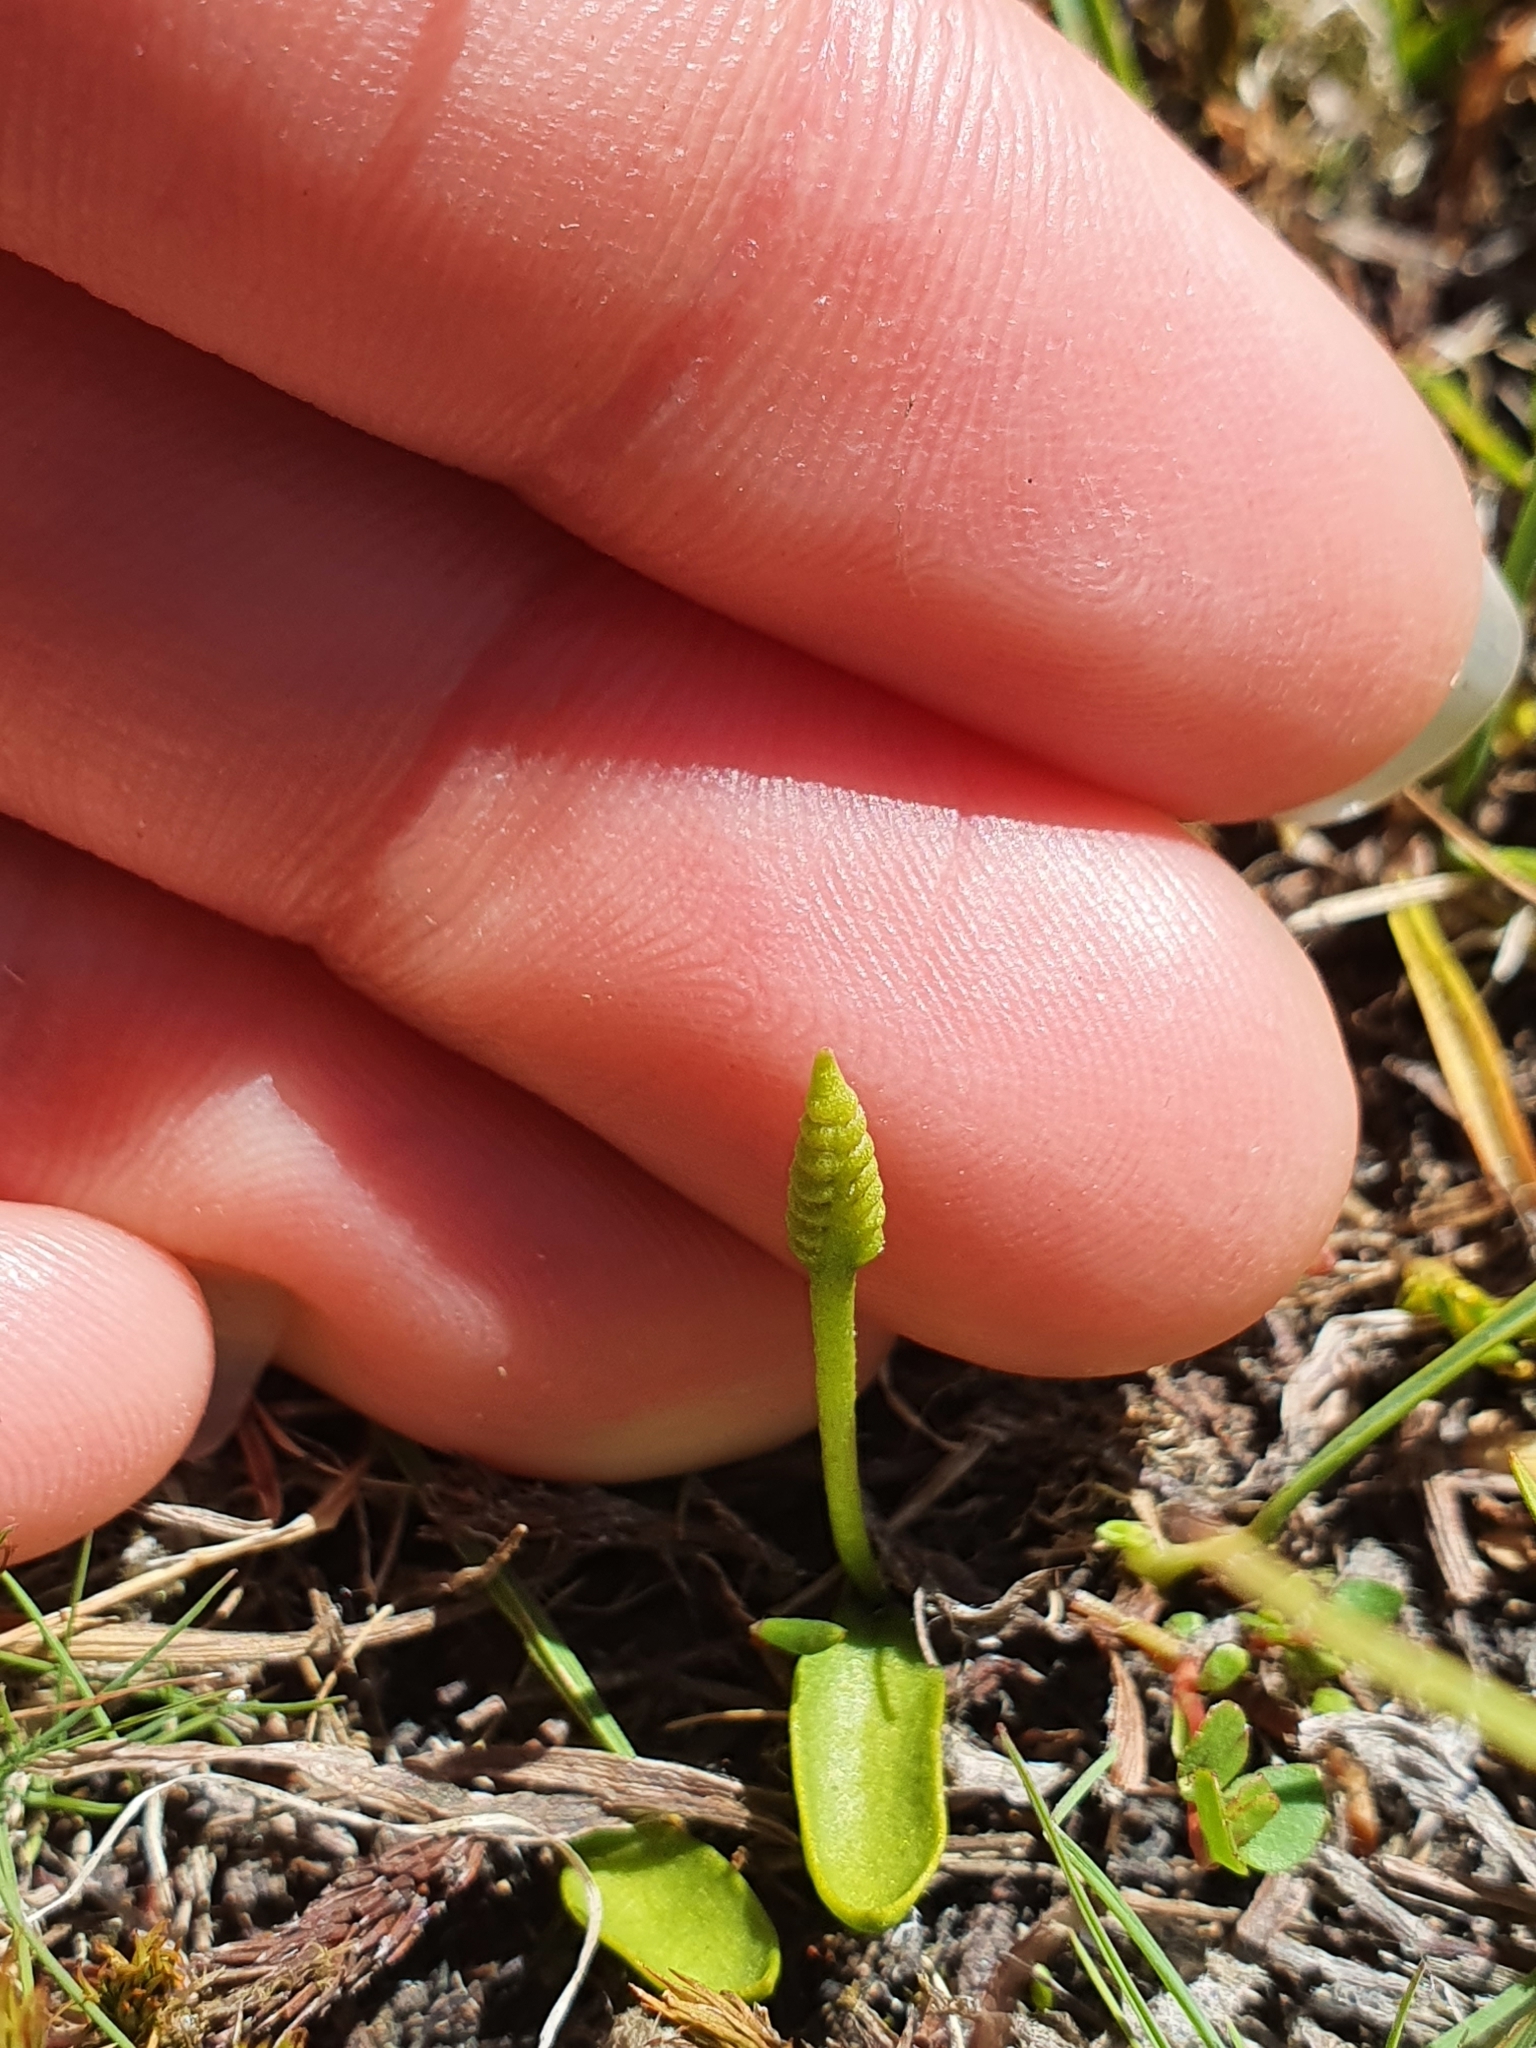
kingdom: Plantae
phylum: Tracheophyta
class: Polypodiopsida
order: Ophioglossales
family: Ophioglossaceae
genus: Ophioglossum
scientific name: Ophioglossum coriaceum
